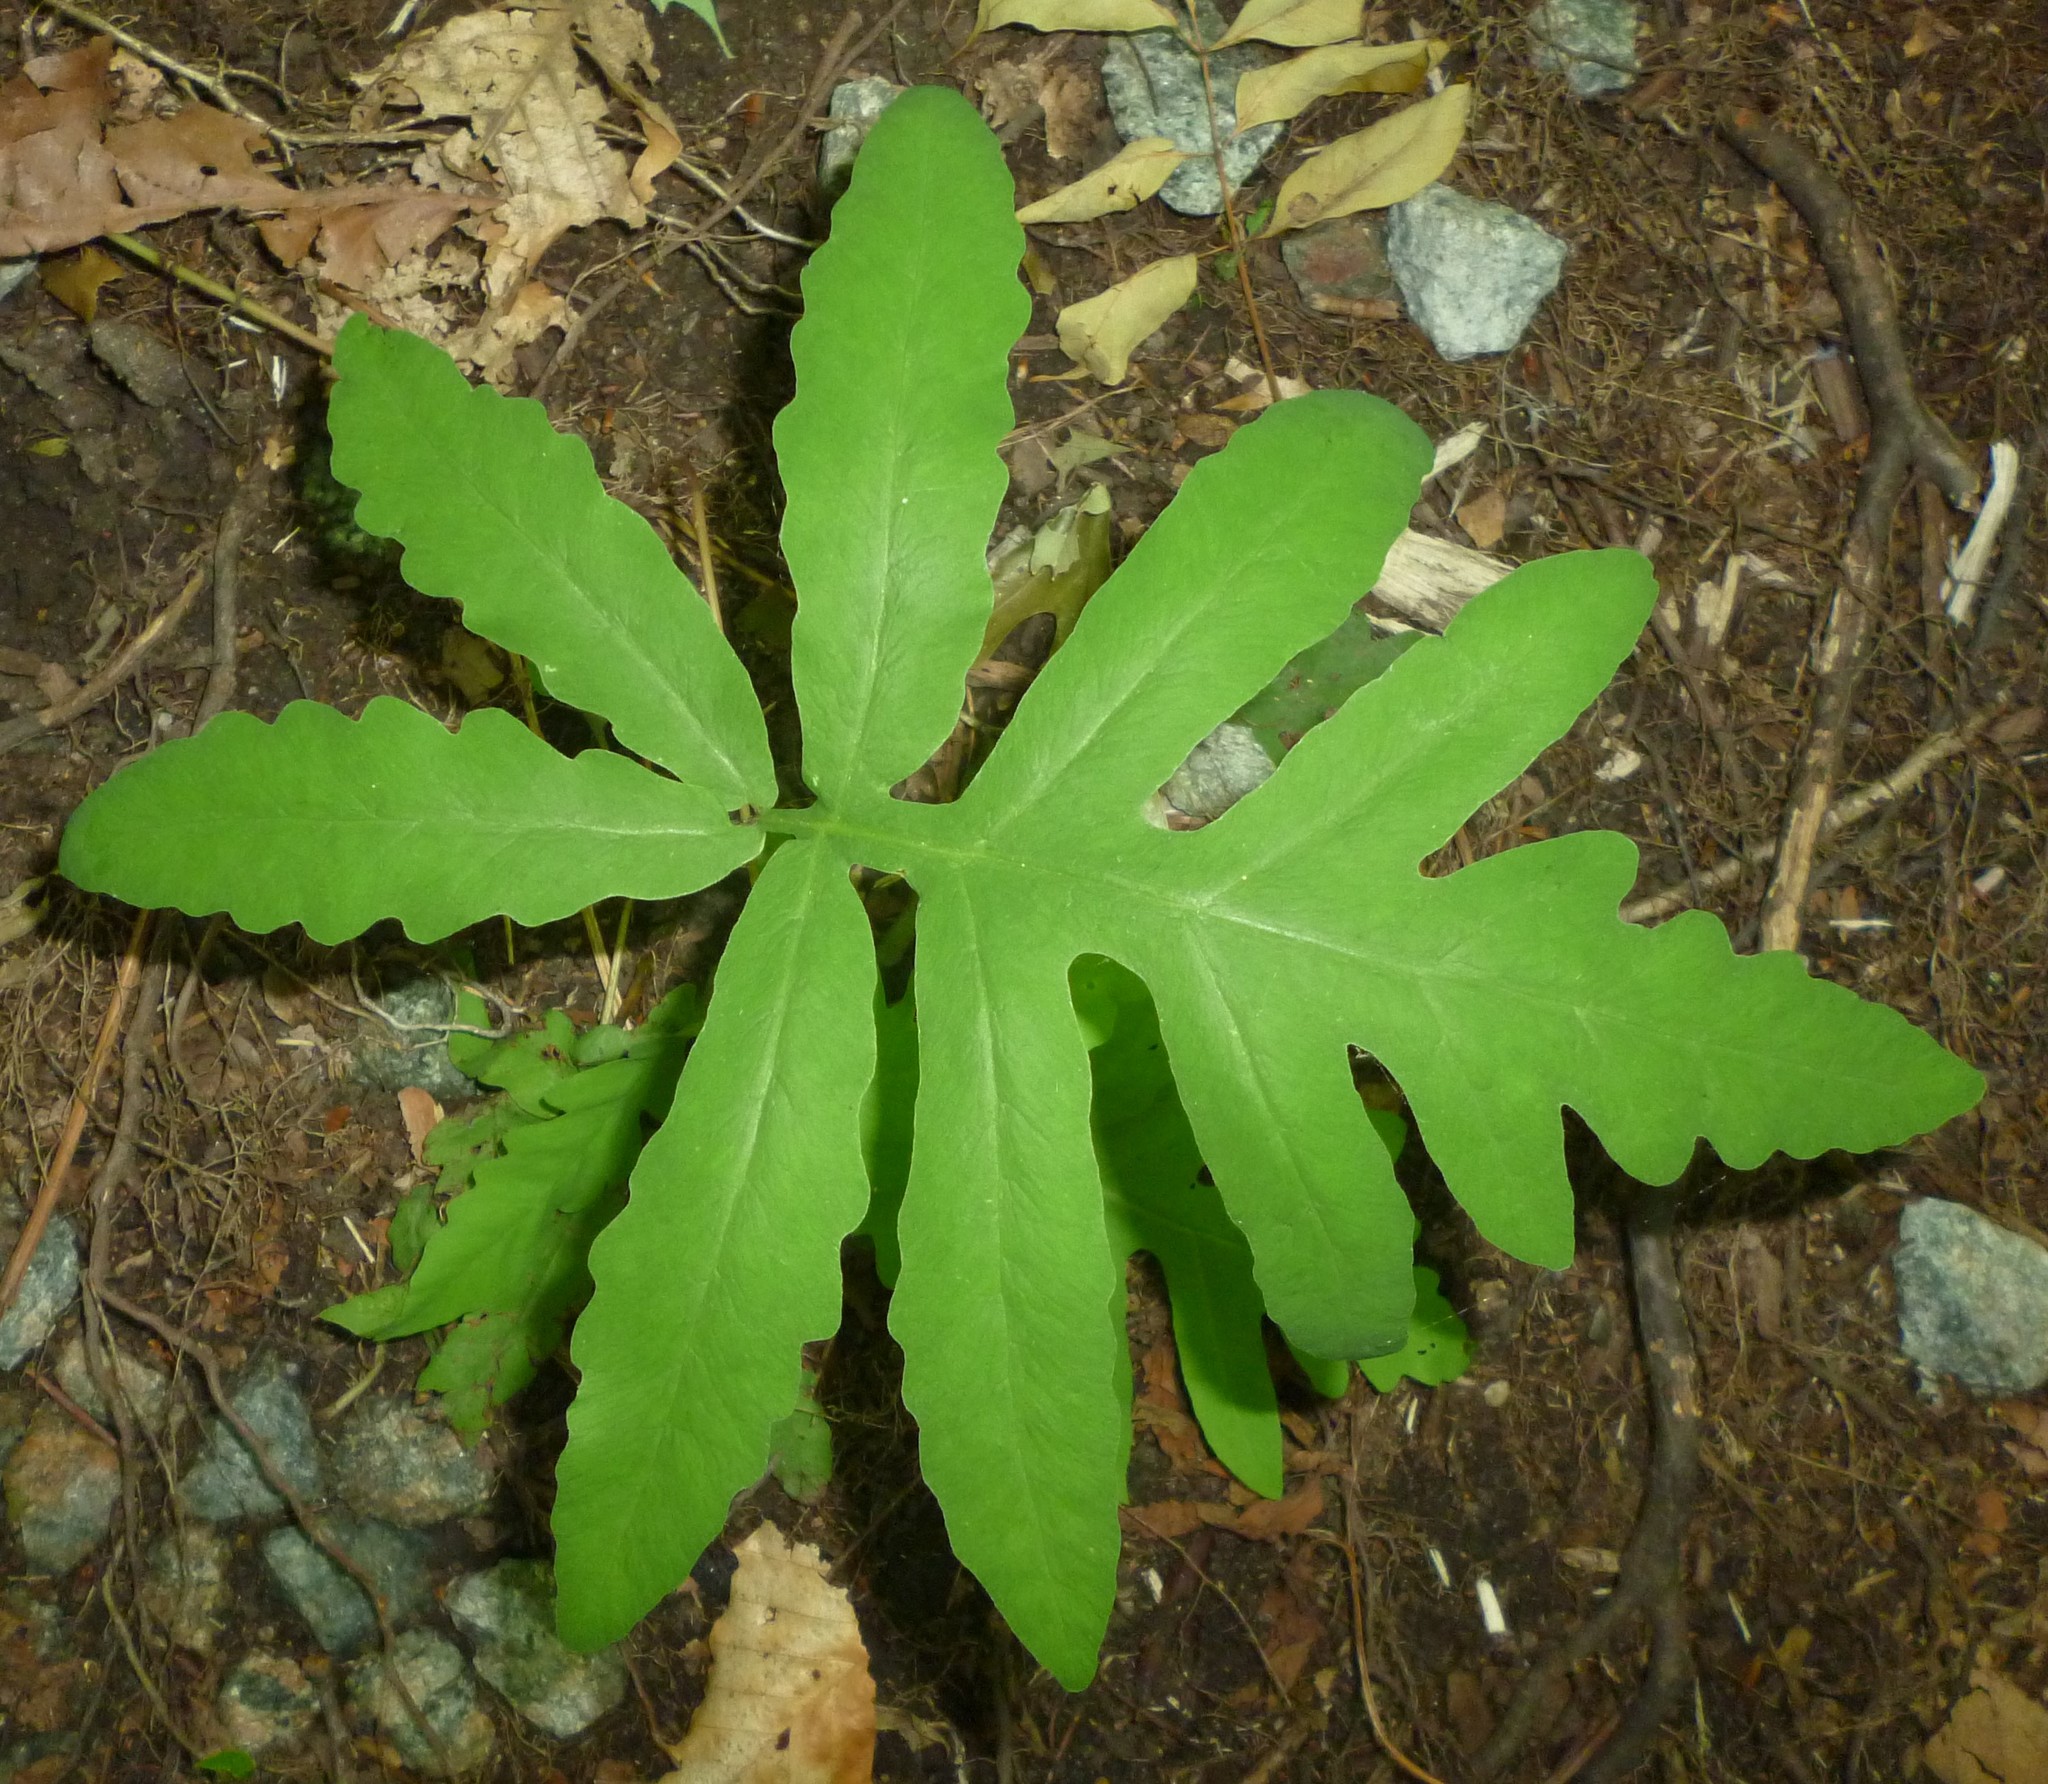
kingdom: Plantae
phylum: Tracheophyta
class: Polypodiopsida
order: Polypodiales
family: Onocleaceae
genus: Onoclea
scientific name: Onoclea sensibilis
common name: Sensitive fern
